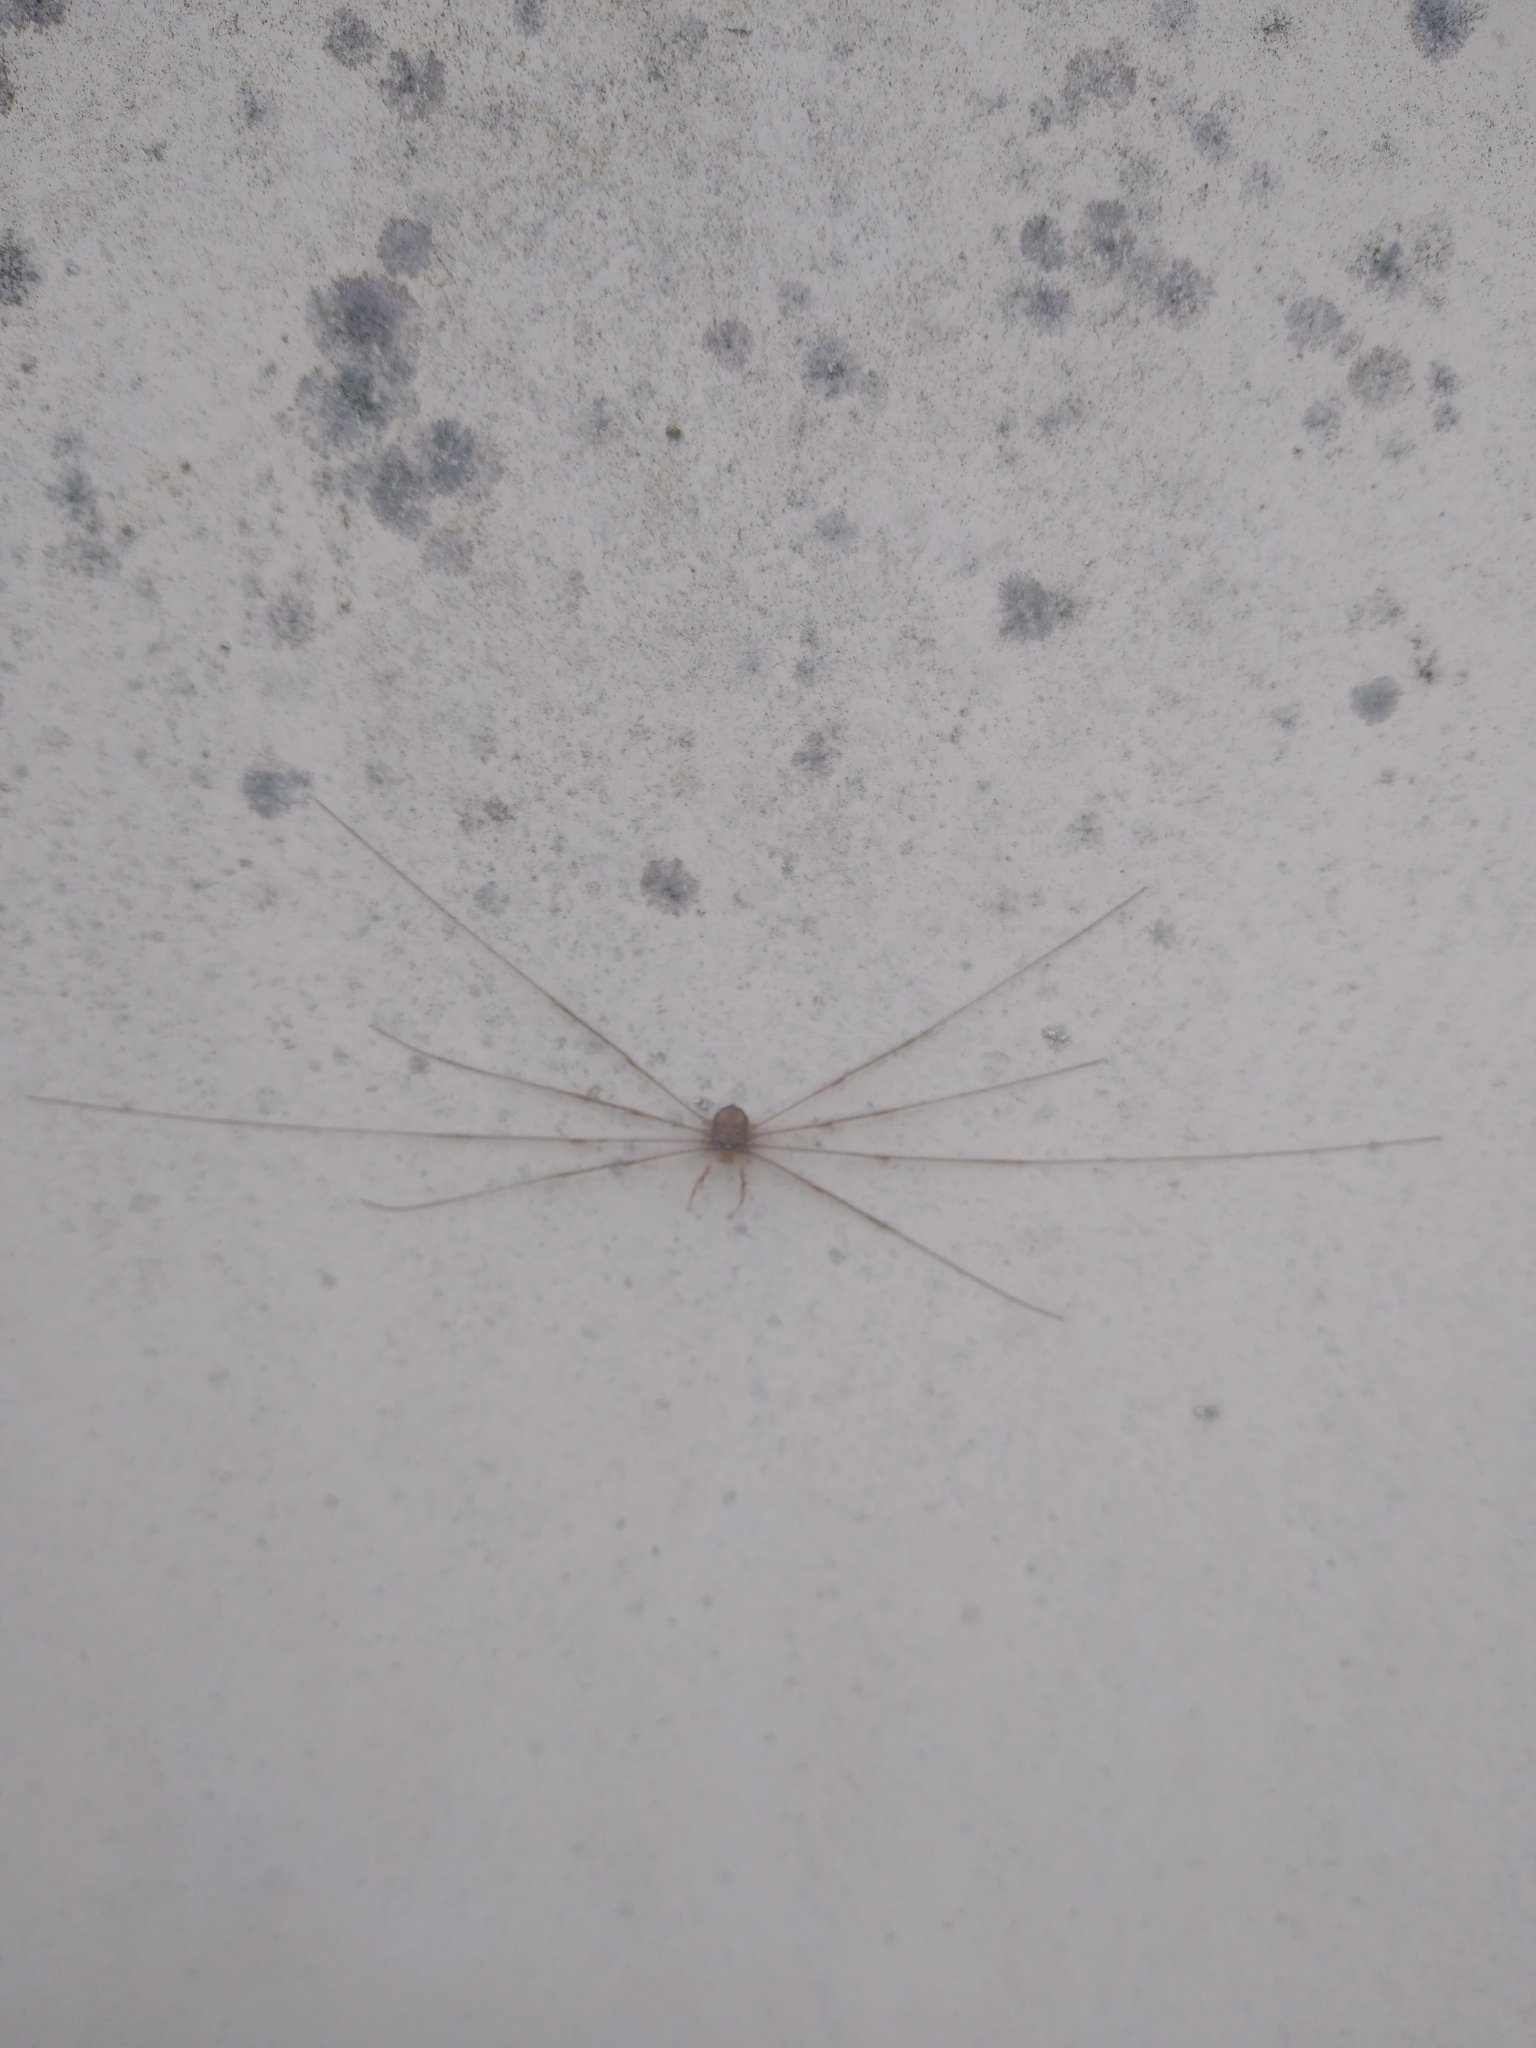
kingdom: Animalia
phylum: Arthropoda
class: Arachnida
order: Opiliones
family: Phalangiidae
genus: Dicranopalpus
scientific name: Dicranopalpus ramosus
